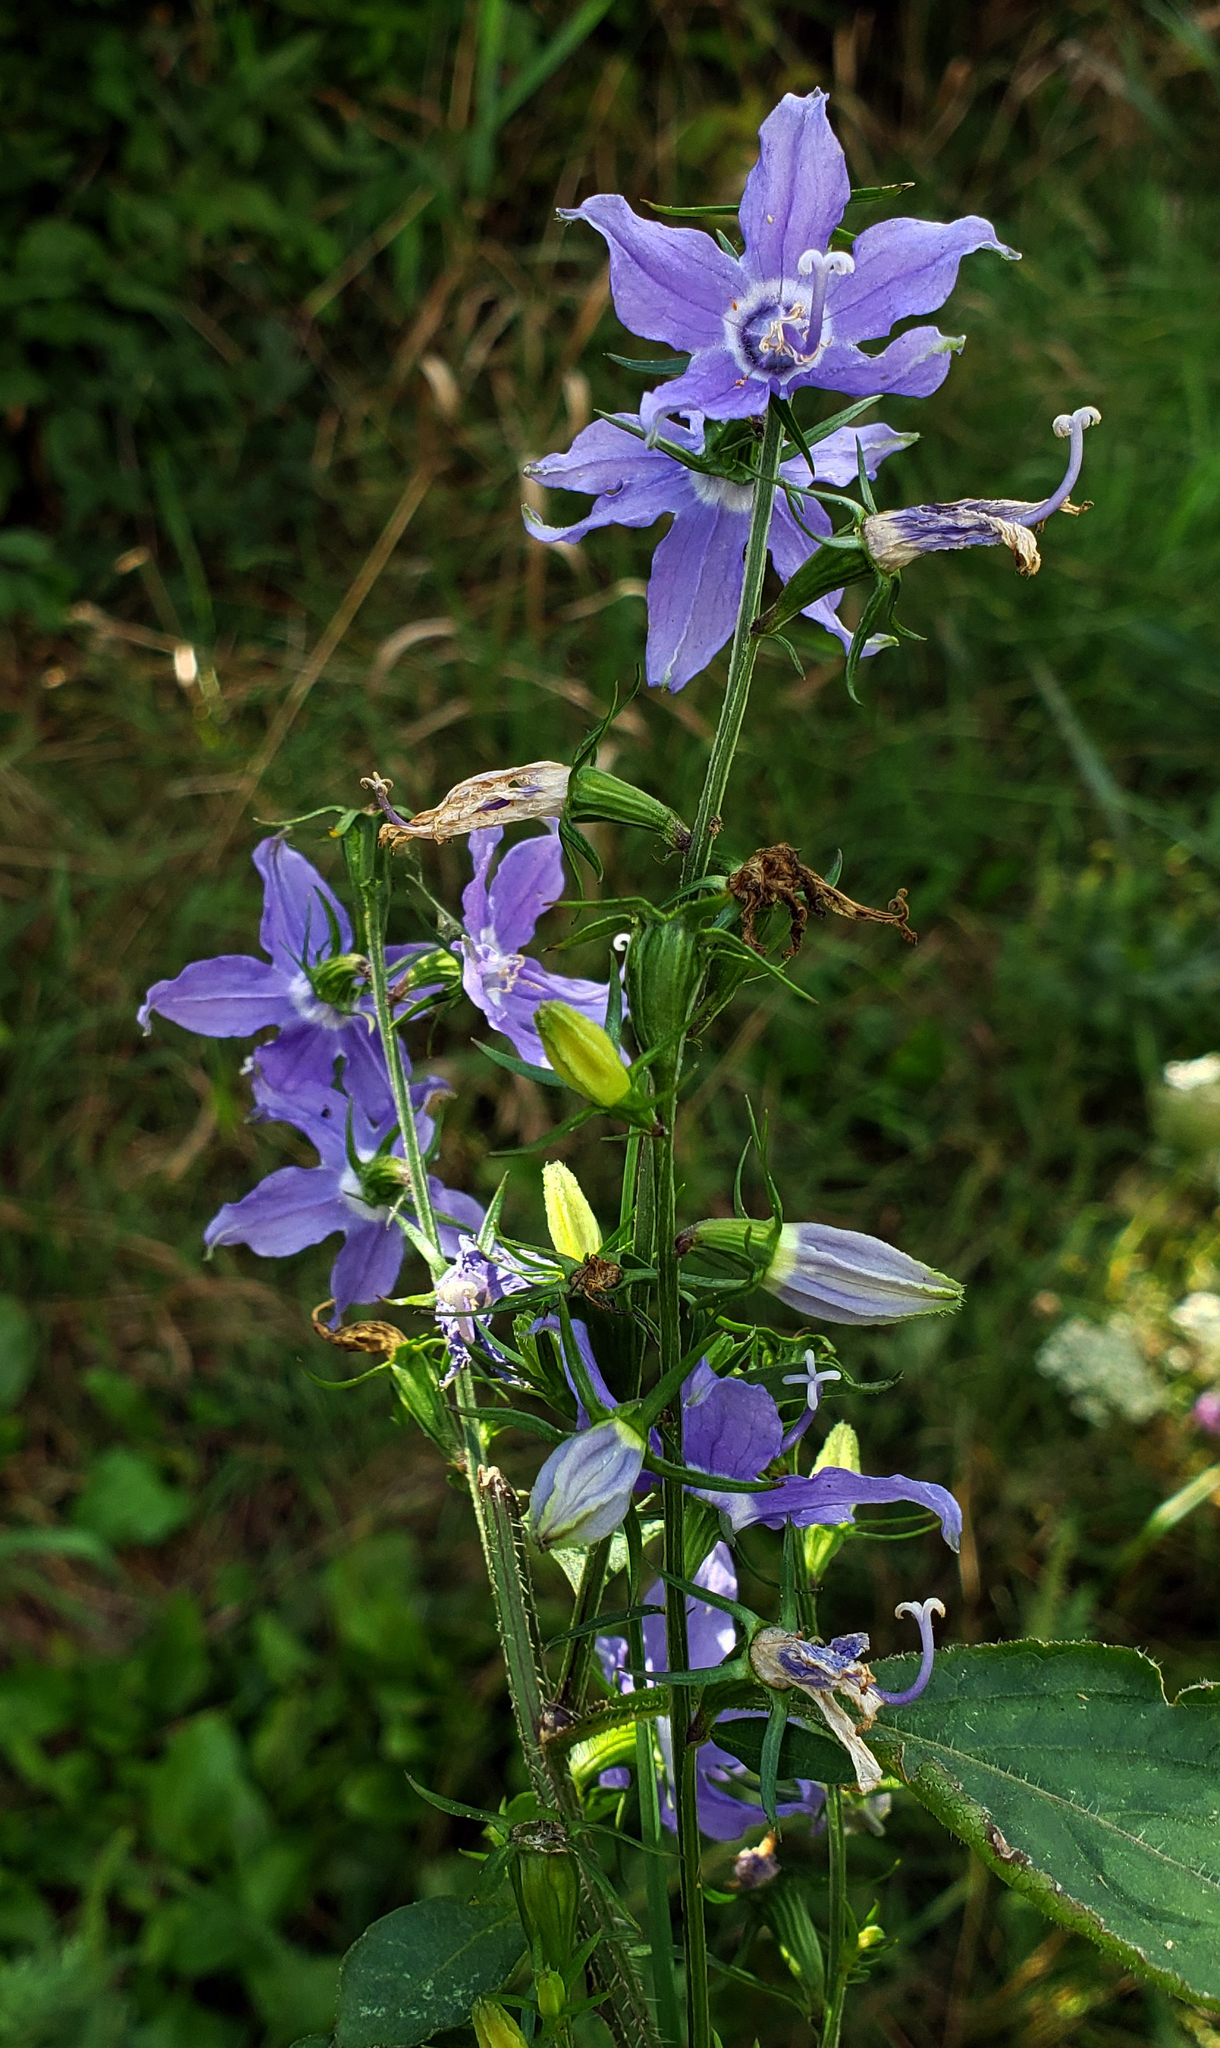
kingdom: Plantae
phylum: Tracheophyta
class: Magnoliopsida
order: Asterales
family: Campanulaceae
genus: Campanulastrum
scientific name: Campanulastrum americanum
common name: American bellflower
